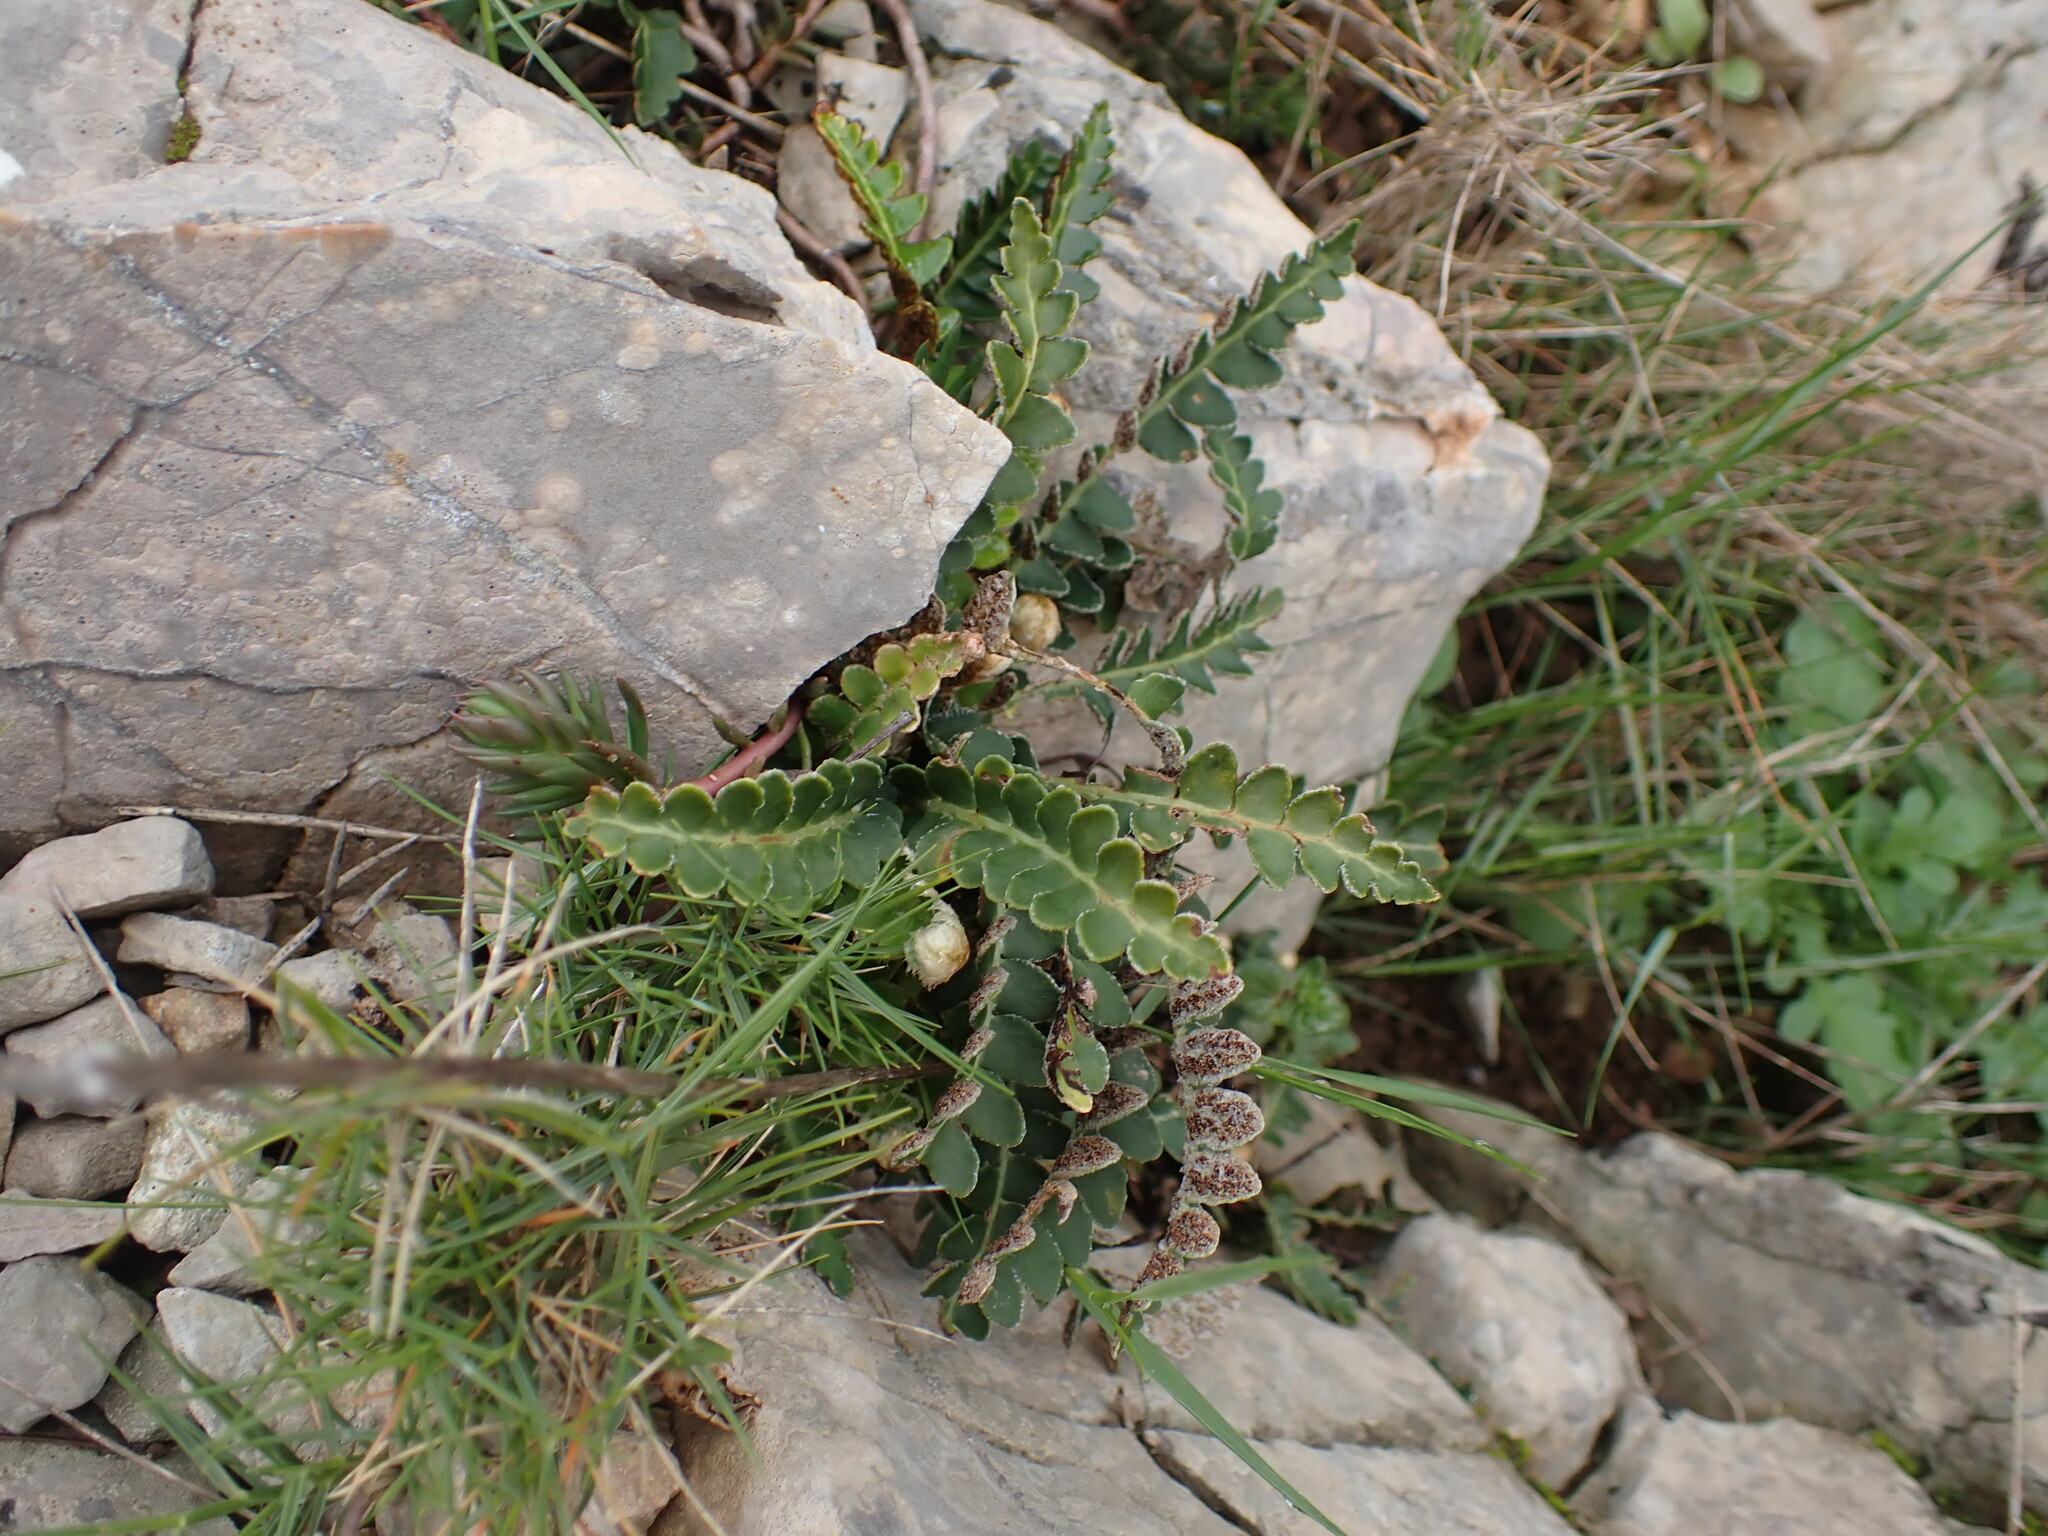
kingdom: Plantae
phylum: Tracheophyta
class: Polypodiopsida
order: Polypodiales
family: Aspleniaceae
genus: Asplenium
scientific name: Asplenium ceterach
